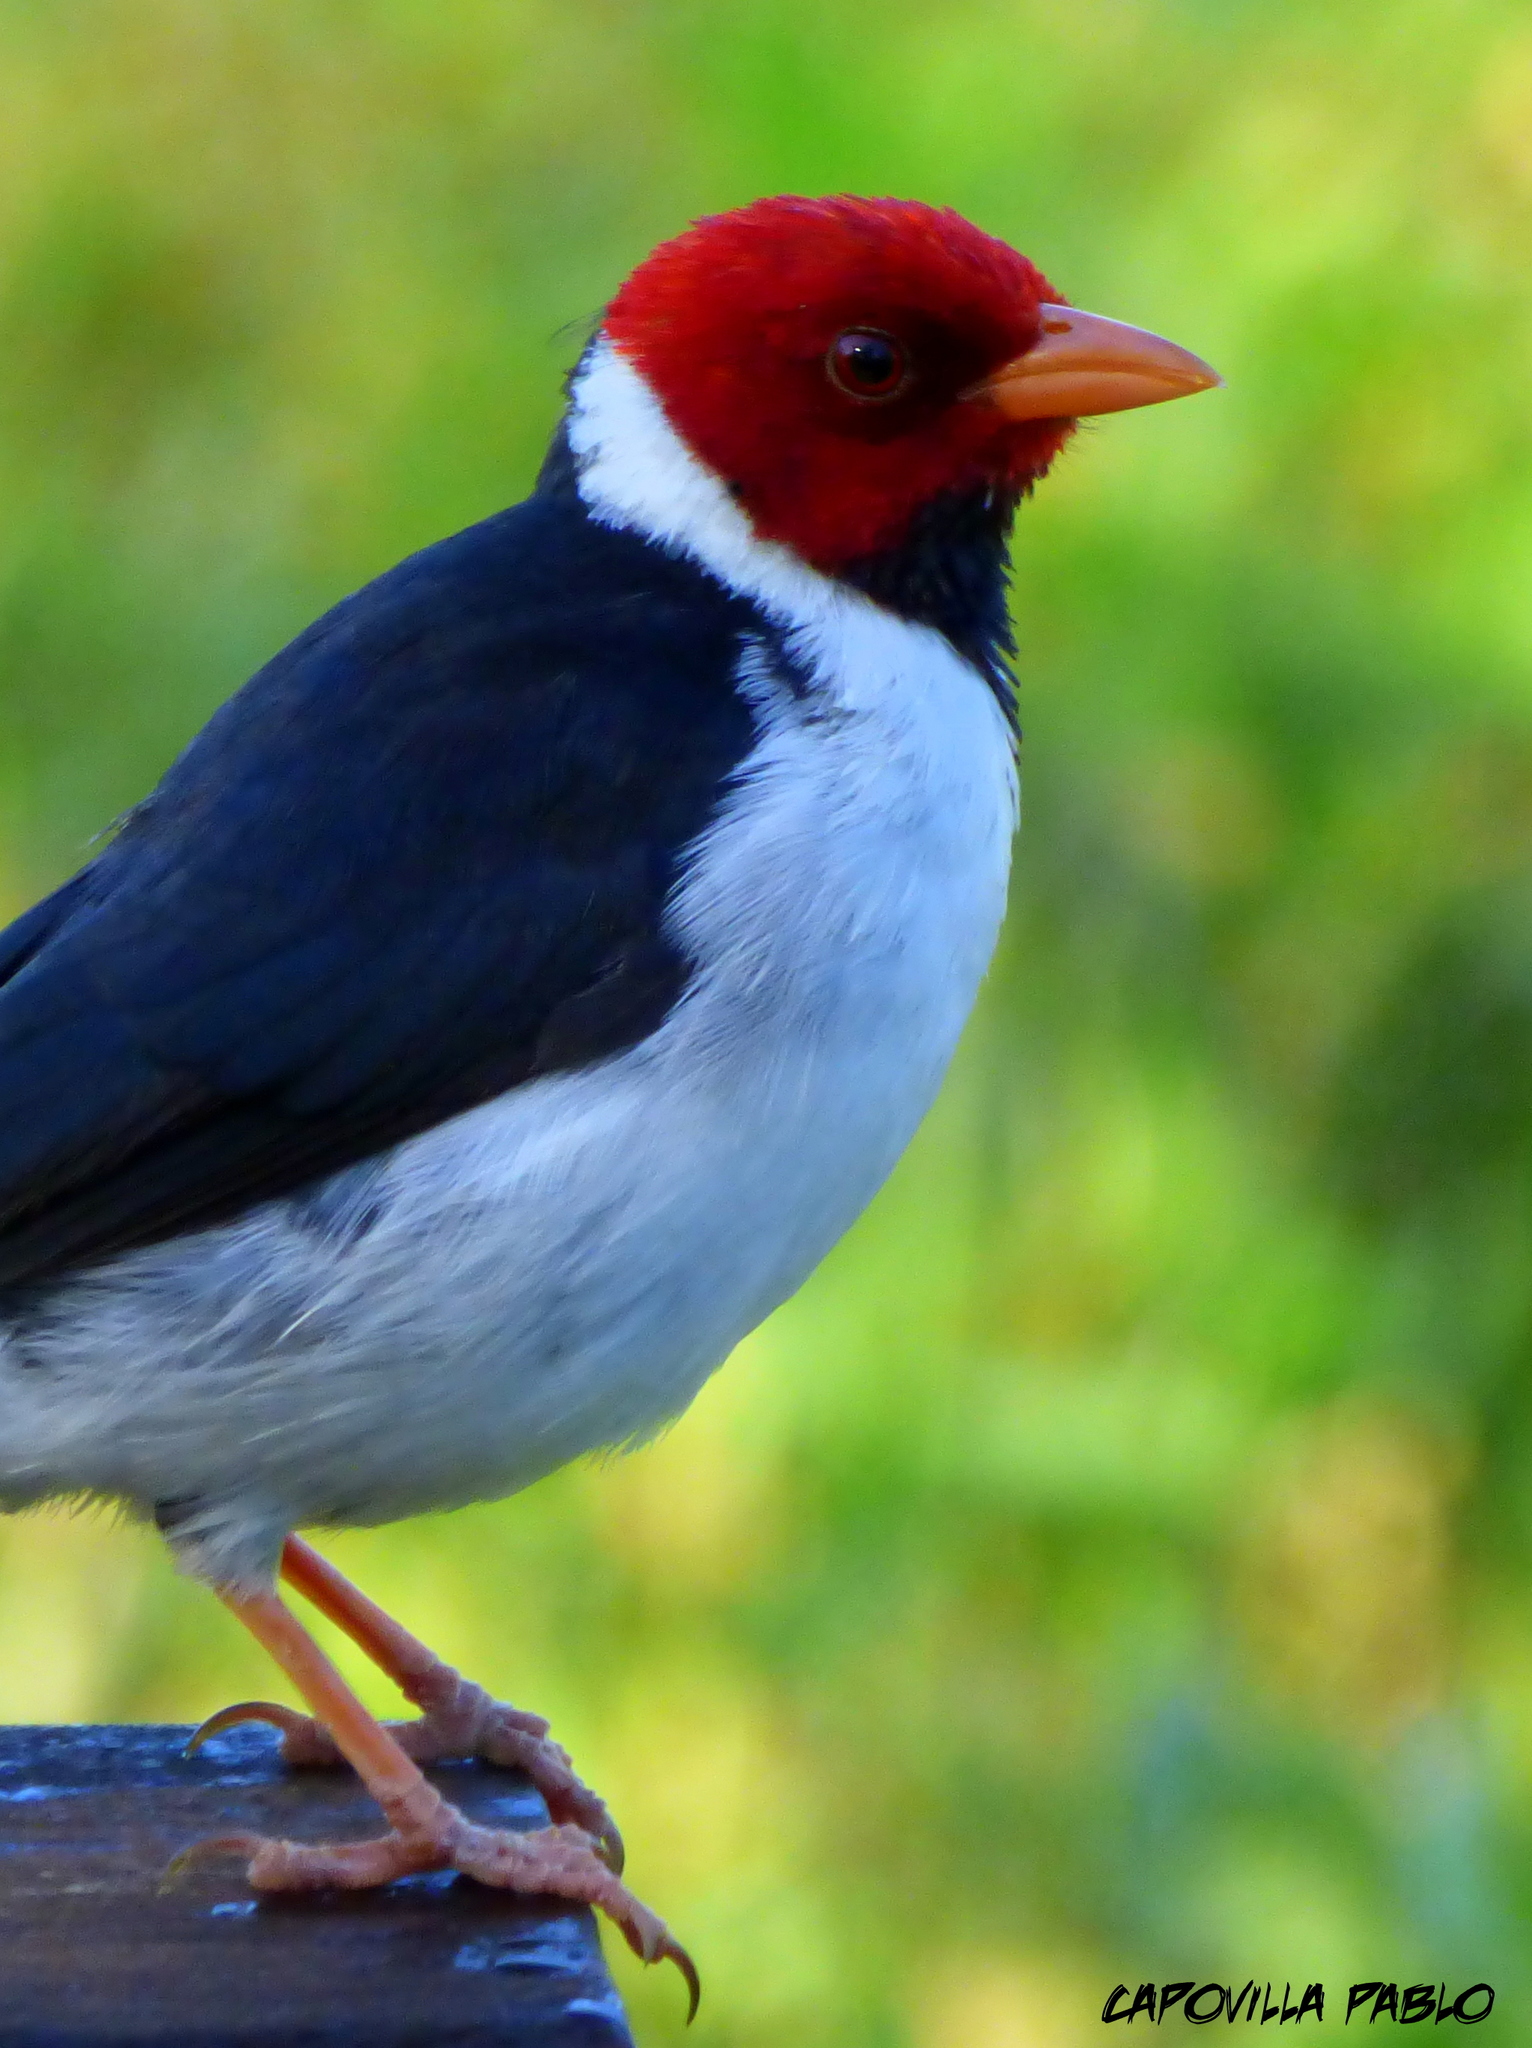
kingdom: Animalia
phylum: Chordata
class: Aves
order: Passeriformes
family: Thraupidae
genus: Paroaria
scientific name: Paroaria capitata
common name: Yellow-billed cardinal
